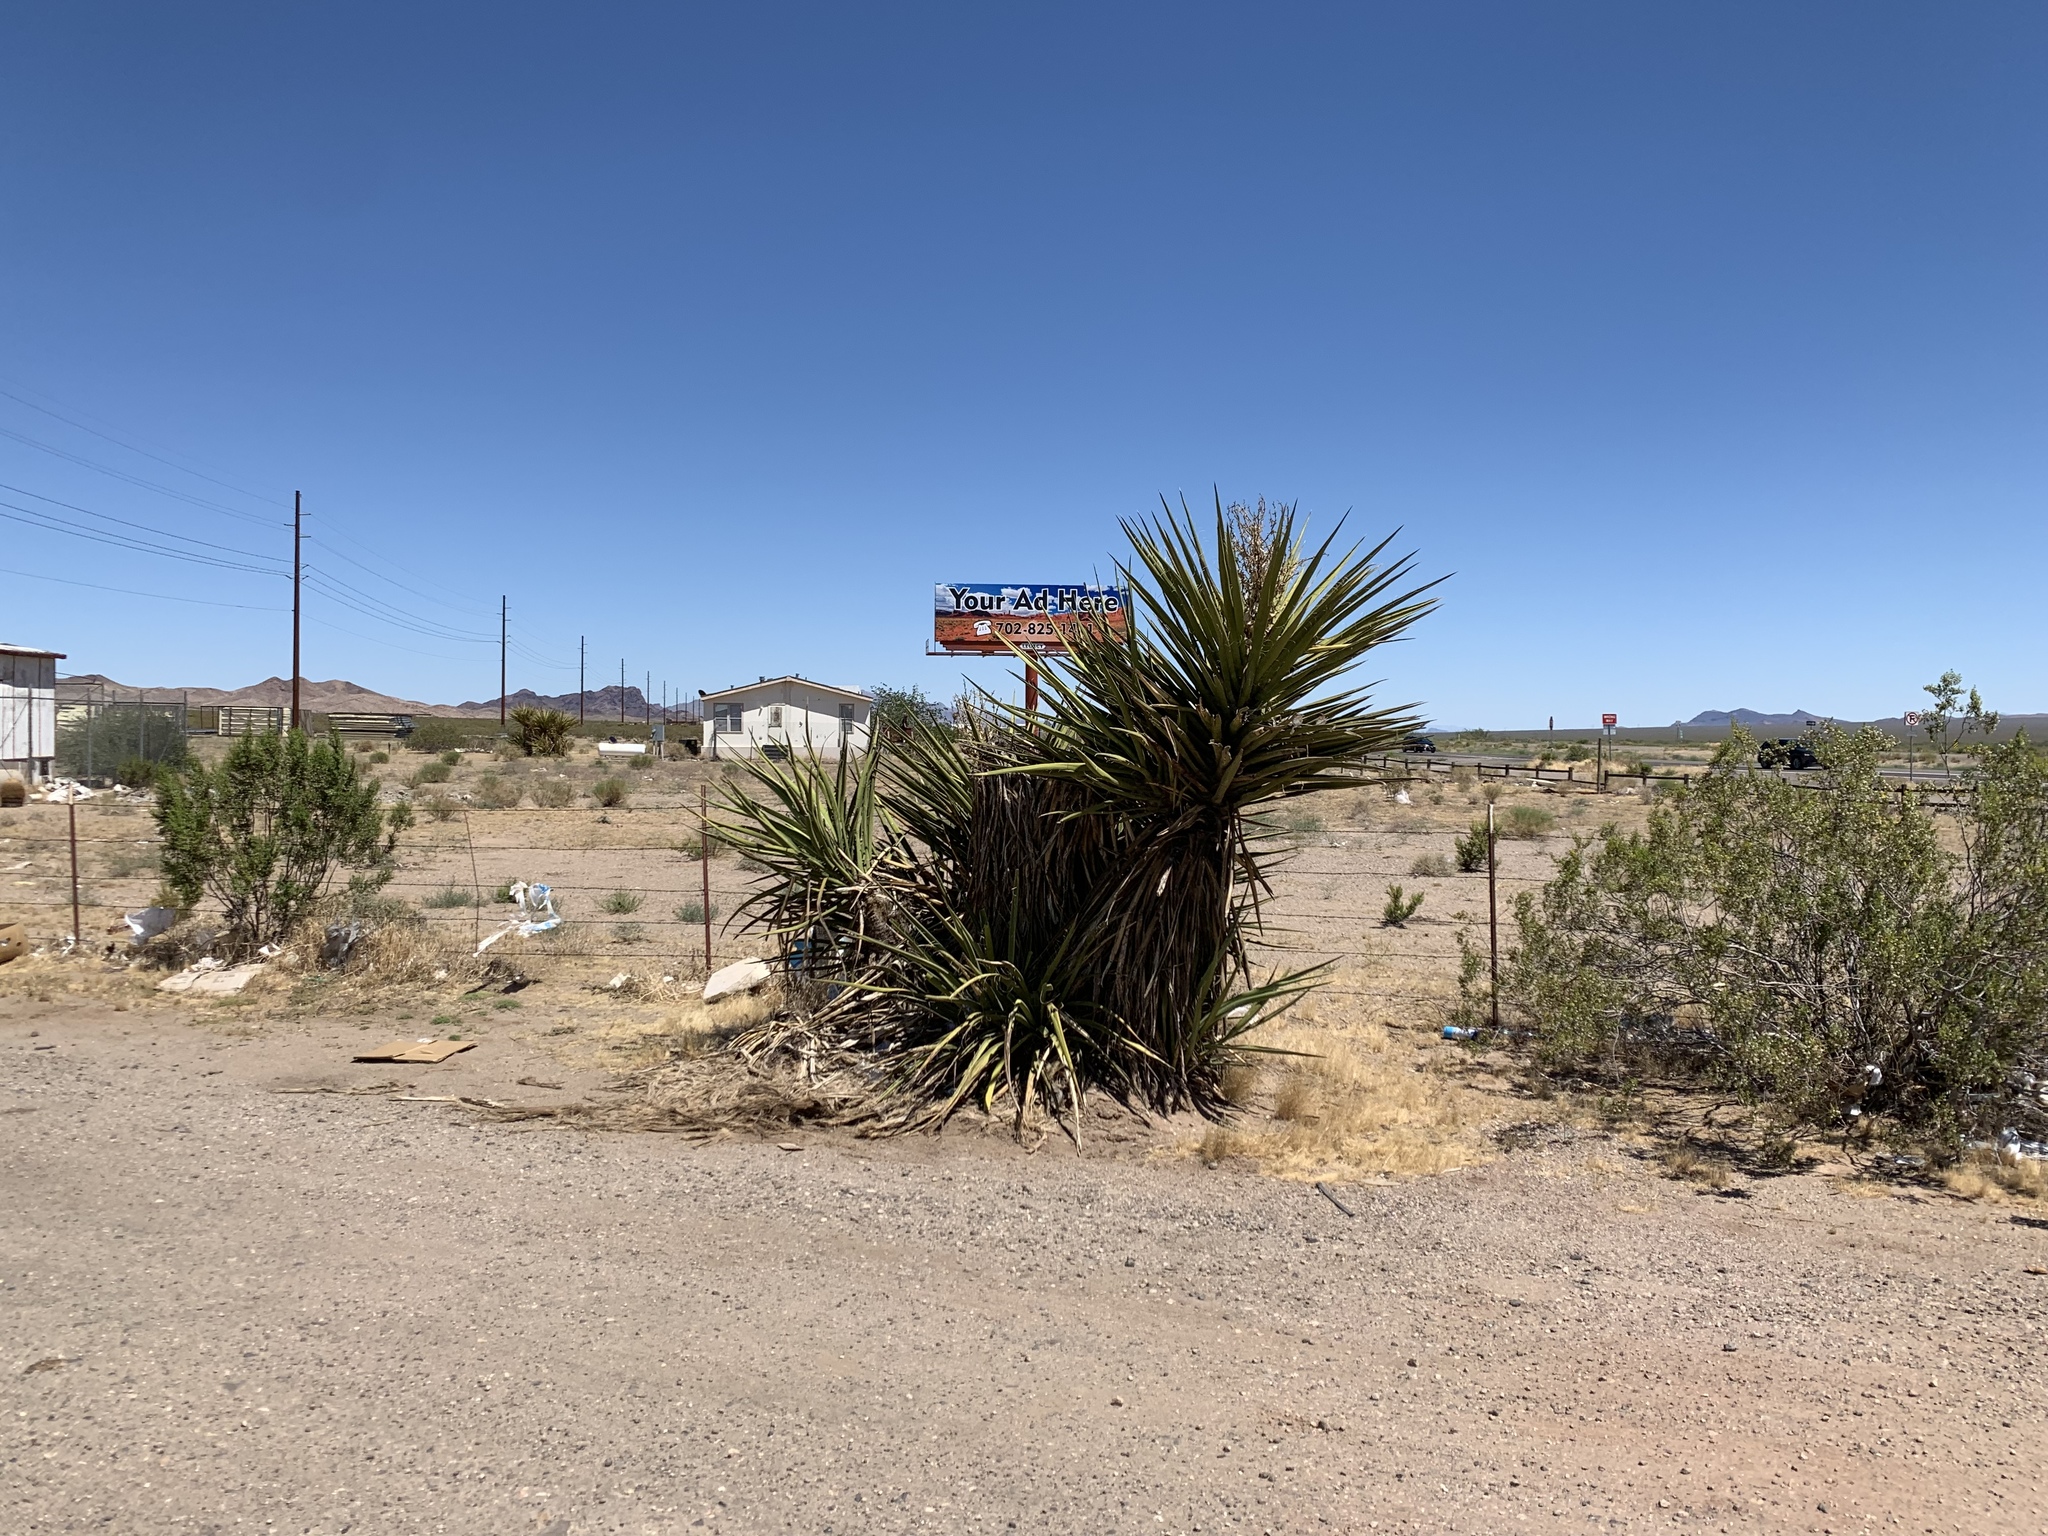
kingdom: Plantae
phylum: Tracheophyta
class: Liliopsida
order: Asparagales
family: Asparagaceae
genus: Yucca
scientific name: Yucca schidigera
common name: Mojave yucca
